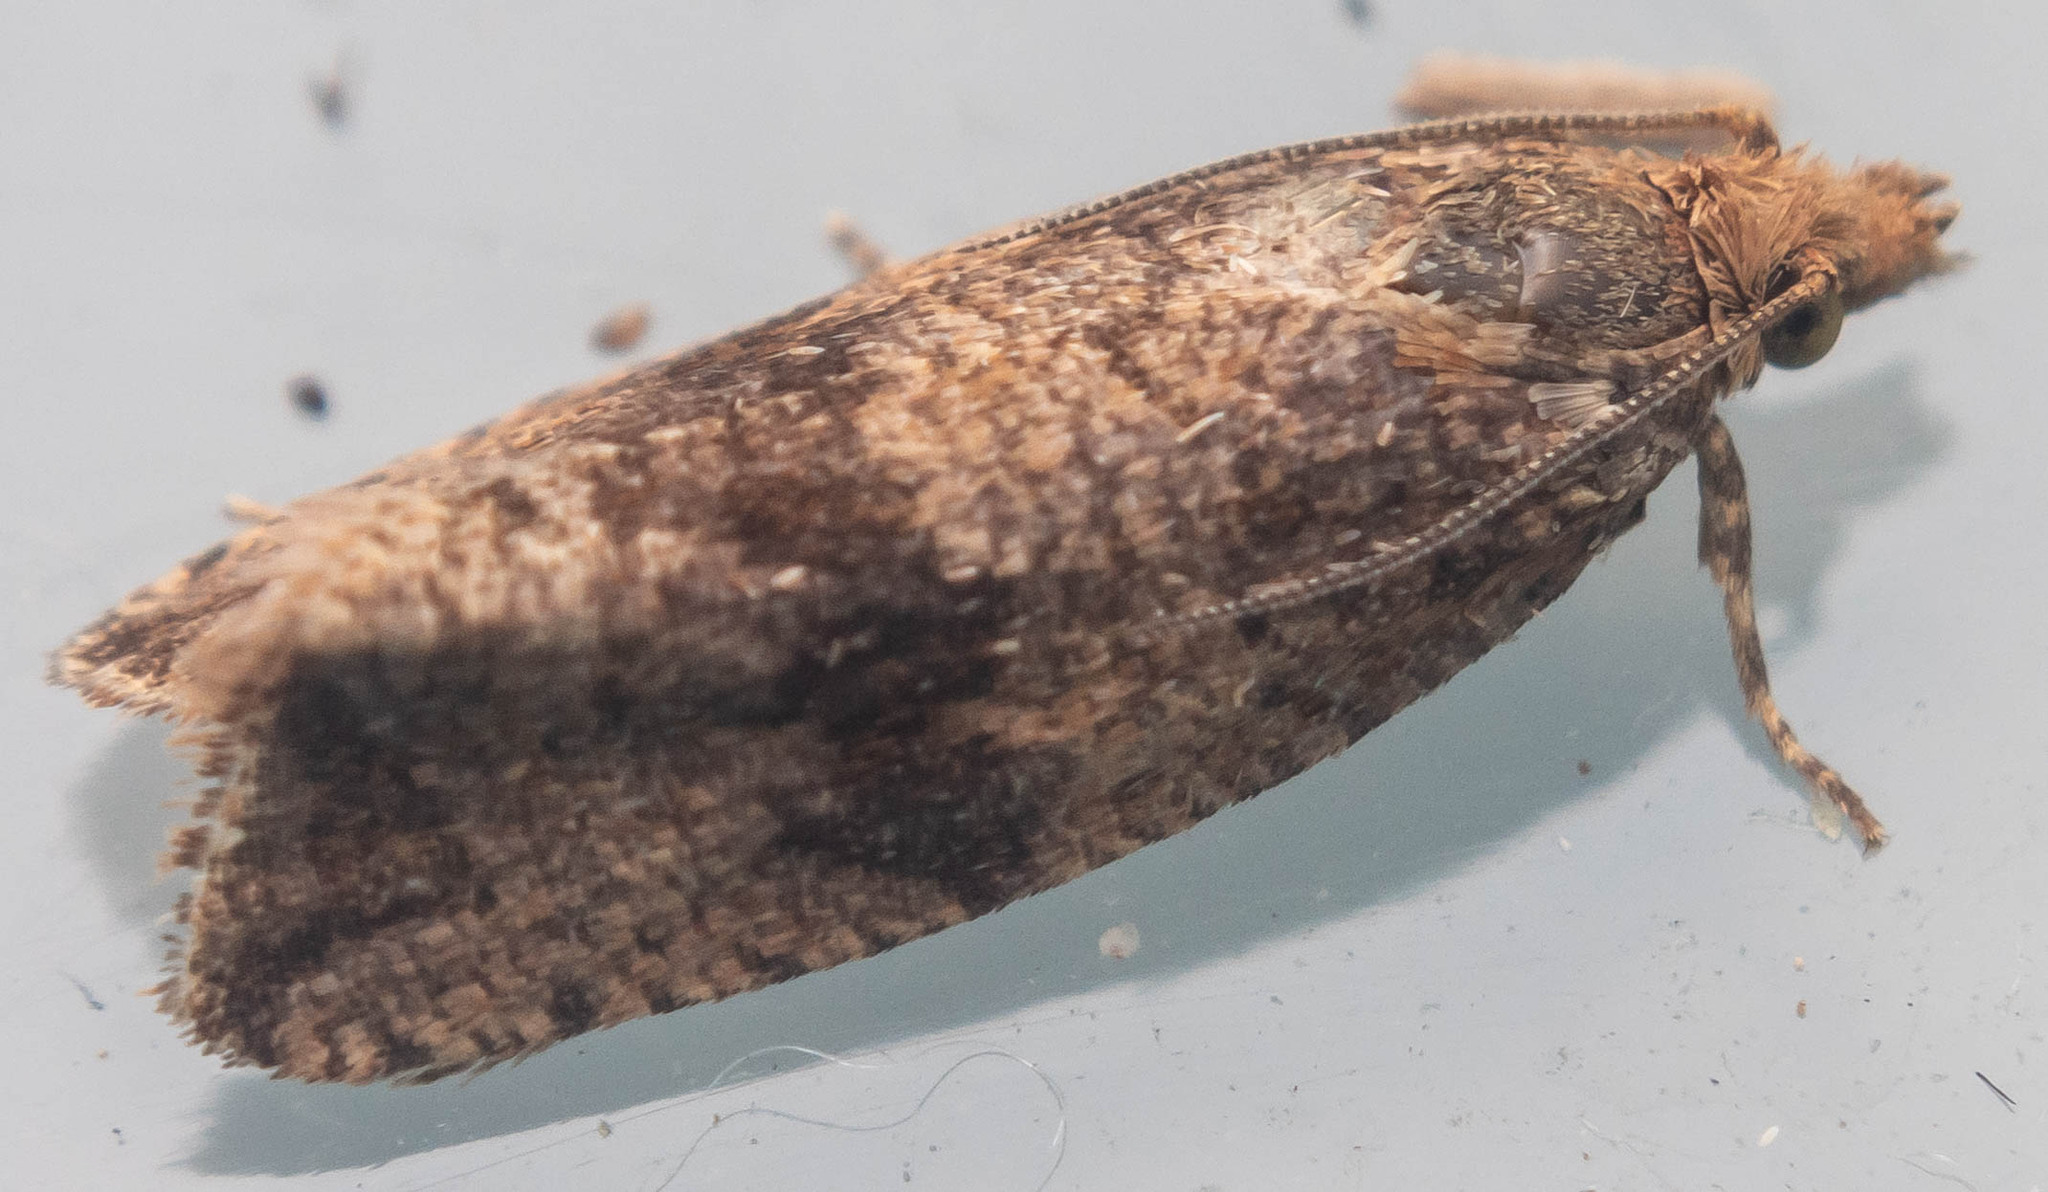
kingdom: Animalia
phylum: Arthropoda
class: Insecta
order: Lepidoptera
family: Tortricidae
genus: Celypha
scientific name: Celypha striana
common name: Barred marble
